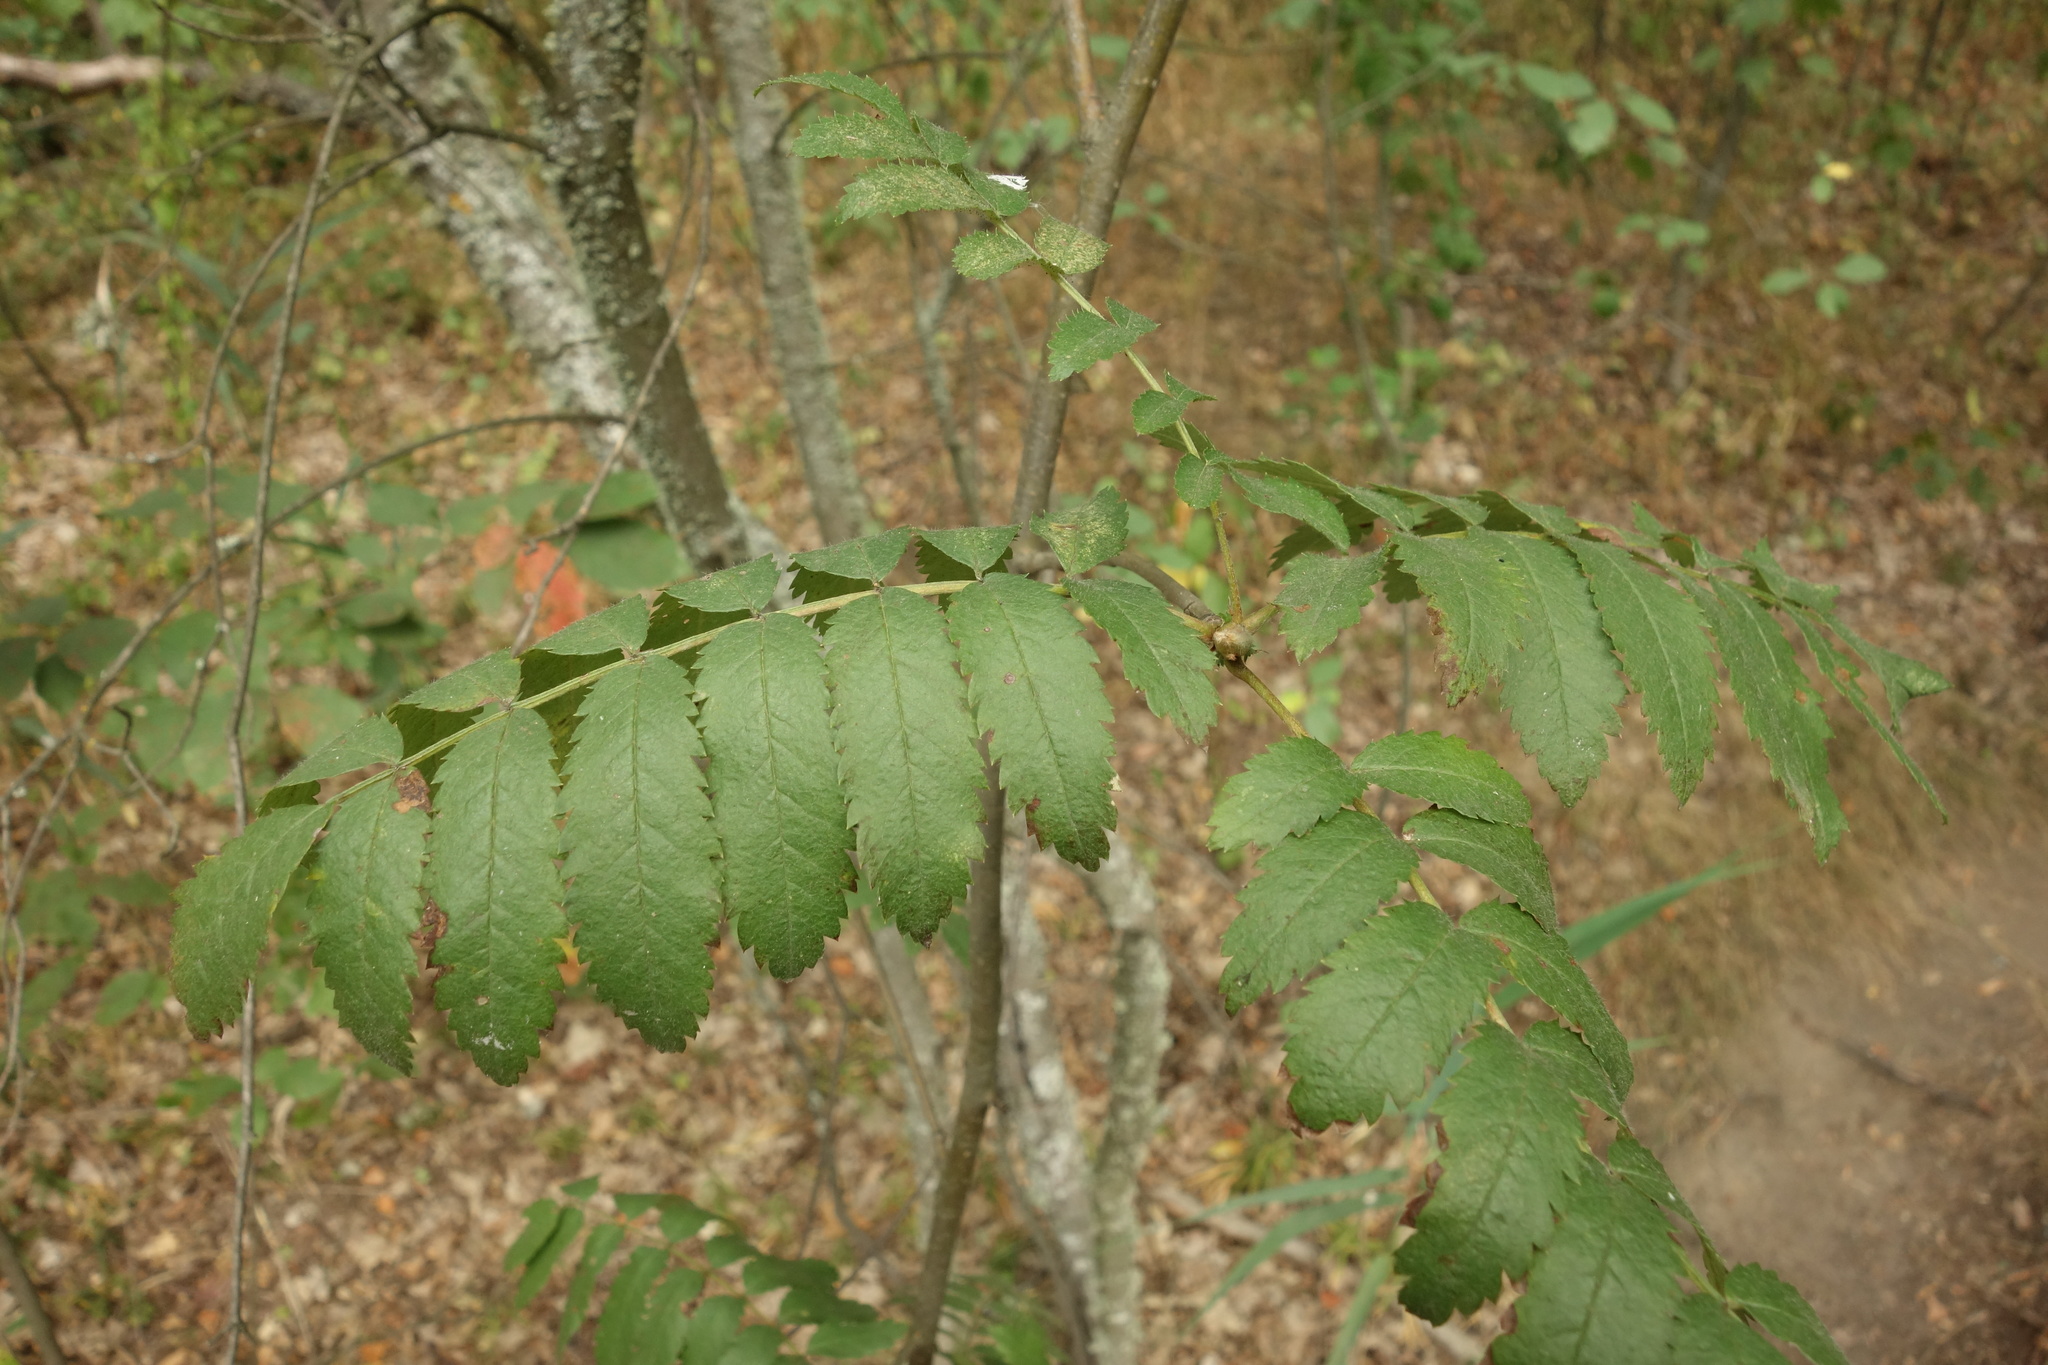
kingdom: Plantae
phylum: Tracheophyta
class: Magnoliopsida
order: Rosales
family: Rosaceae
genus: Sorbus
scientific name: Sorbus aucuparia
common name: Rowan
